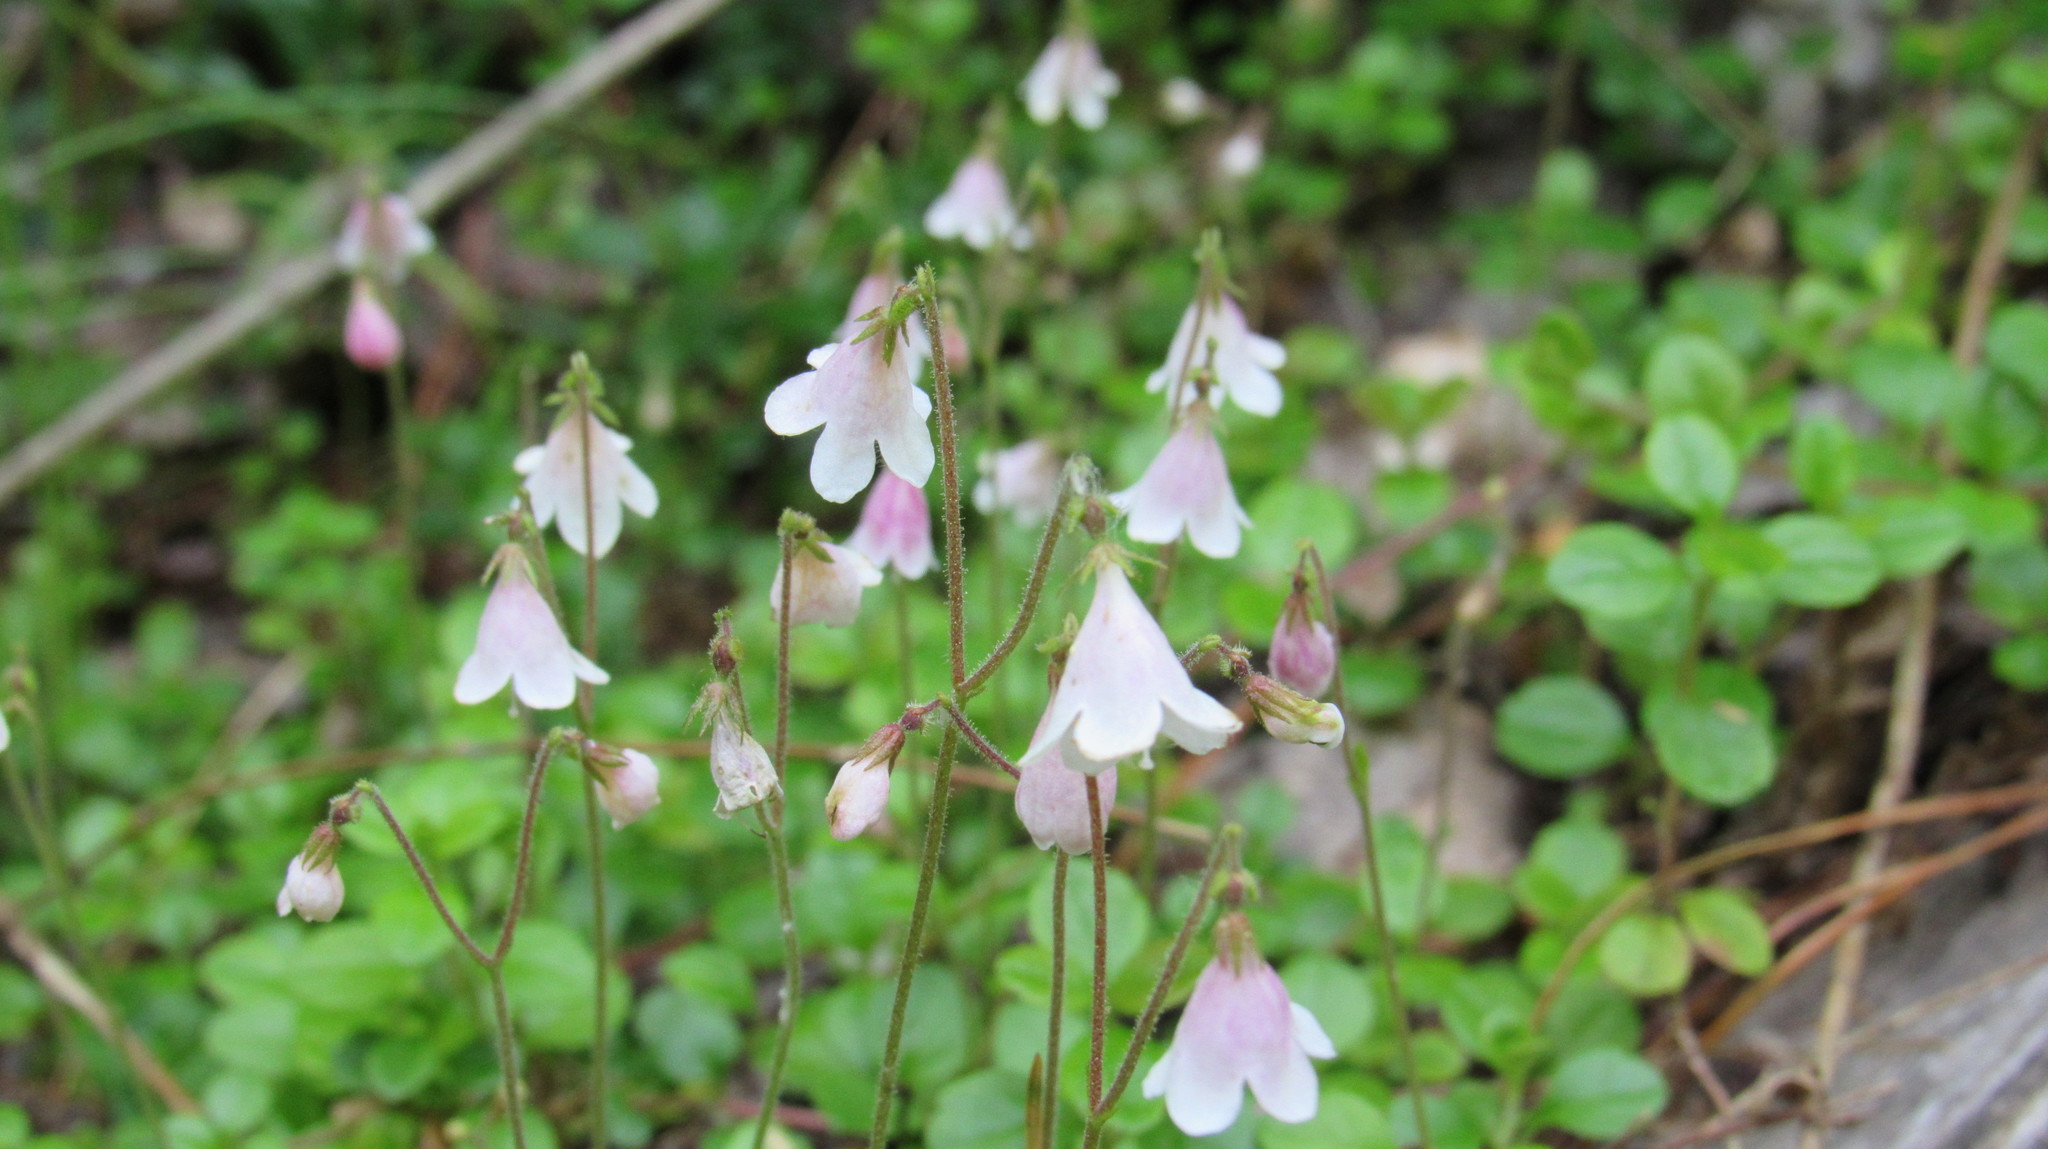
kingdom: Plantae
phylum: Tracheophyta
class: Magnoliopsida
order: Dipsacales
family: Caprifoliaceae
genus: Linnaea
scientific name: Linnaea borealis
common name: Twinflower
